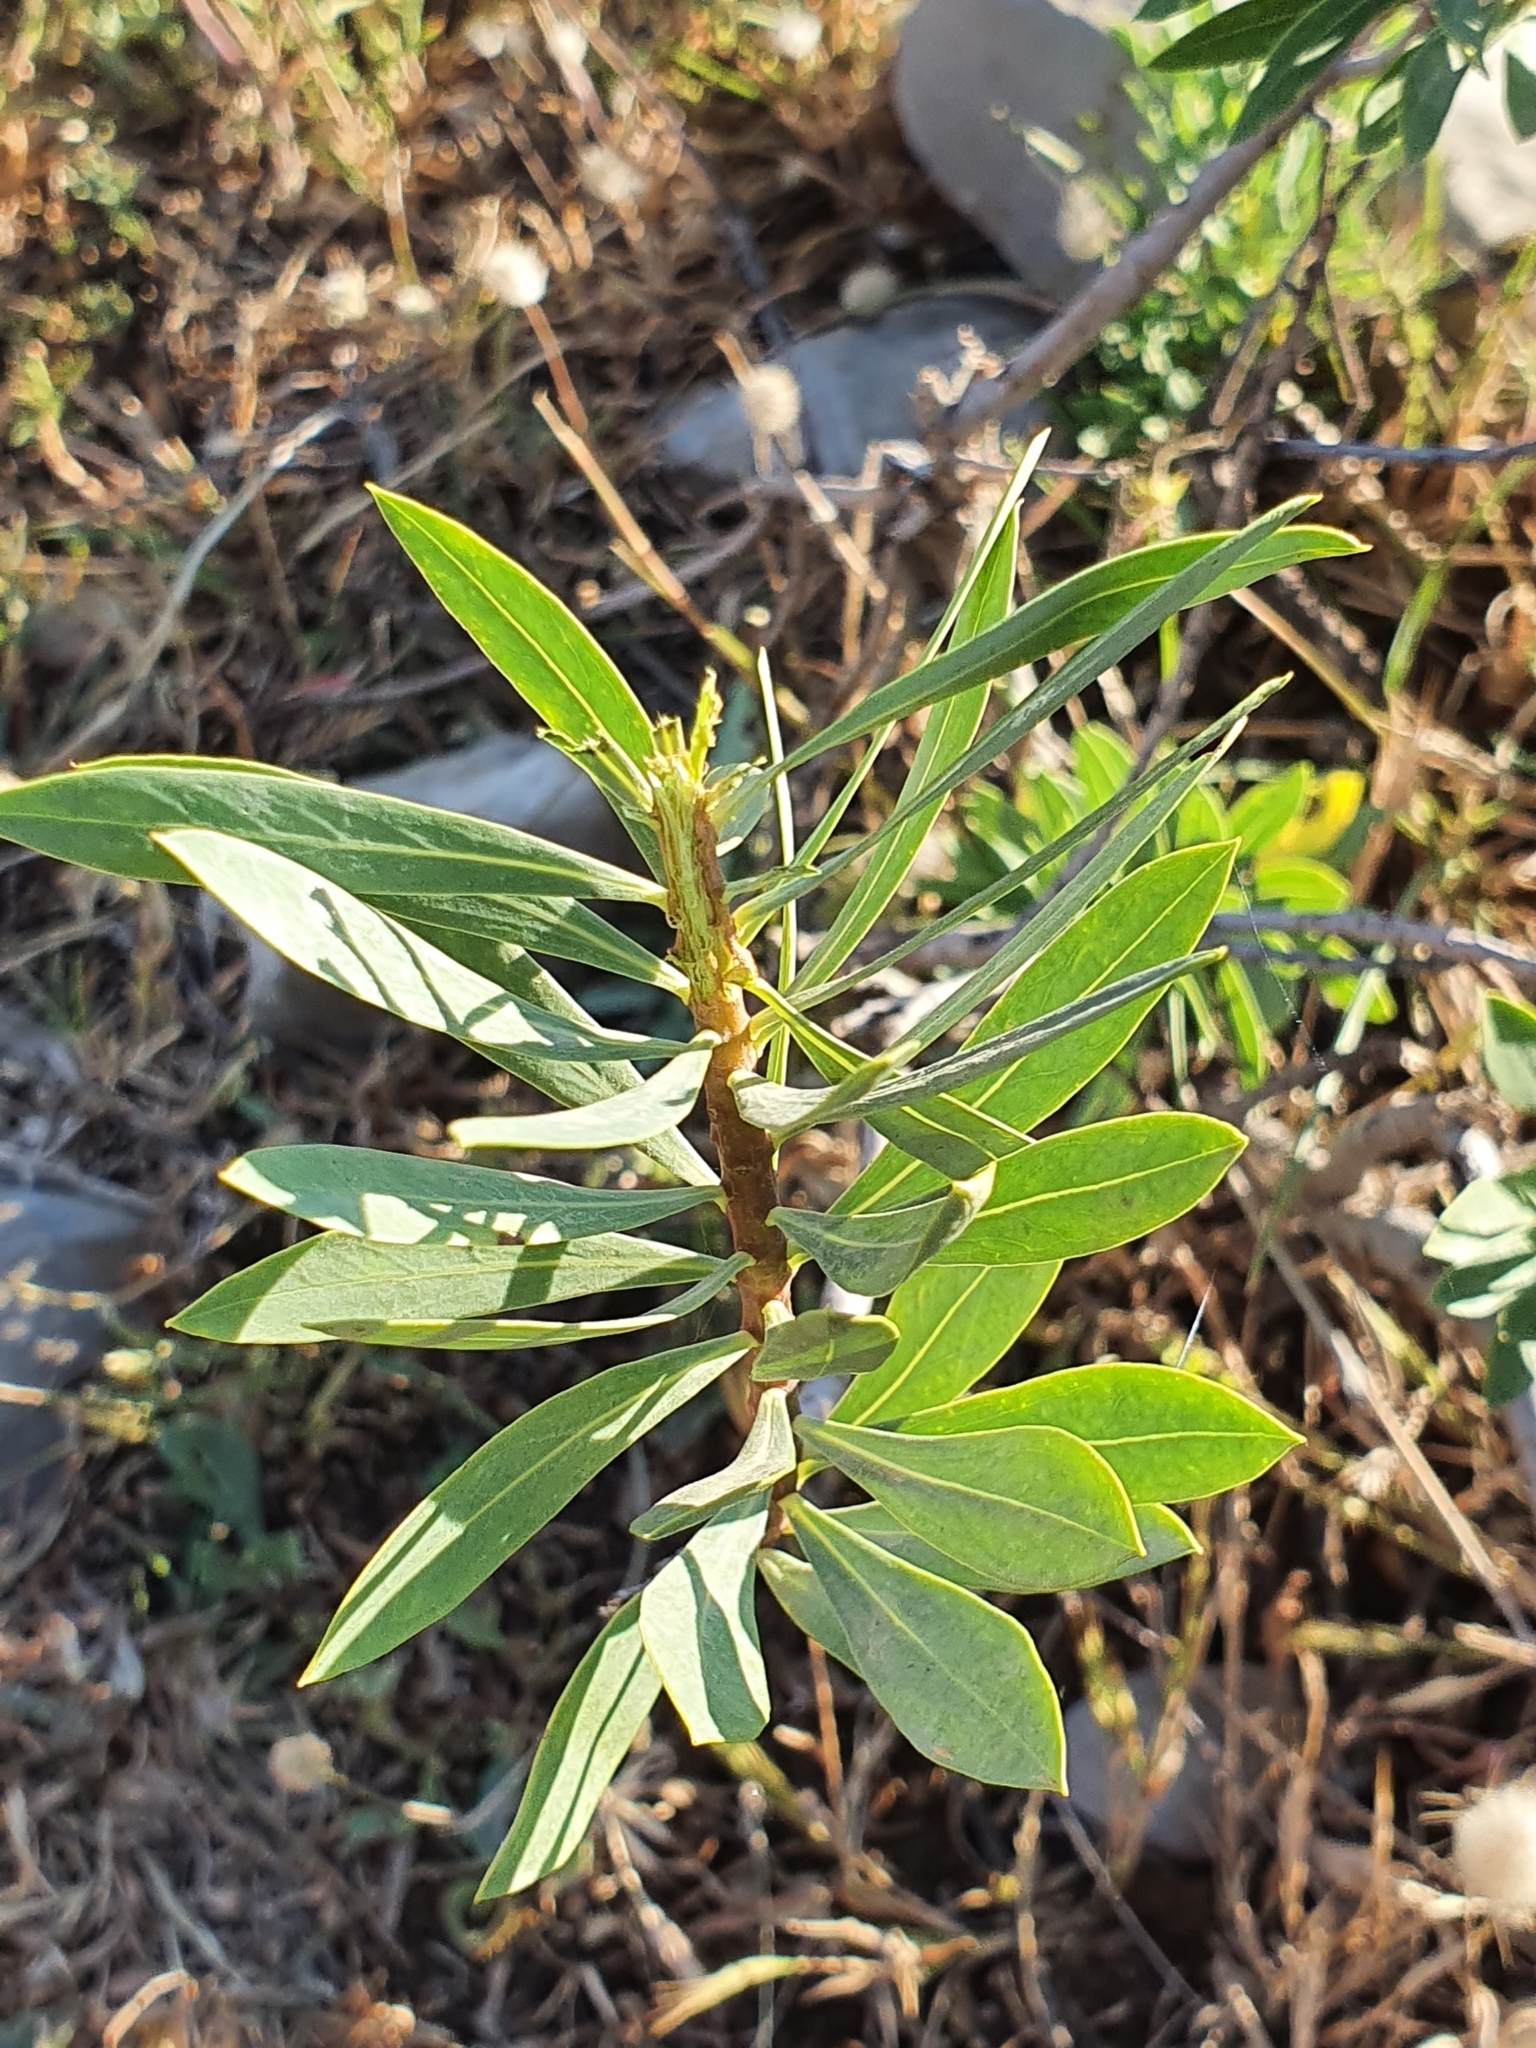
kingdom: Plantae
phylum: Tracheophyta
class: Magnoliopsida
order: Malvales
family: Thymelaeaceae
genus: Daphne
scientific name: Daphne gnidium
